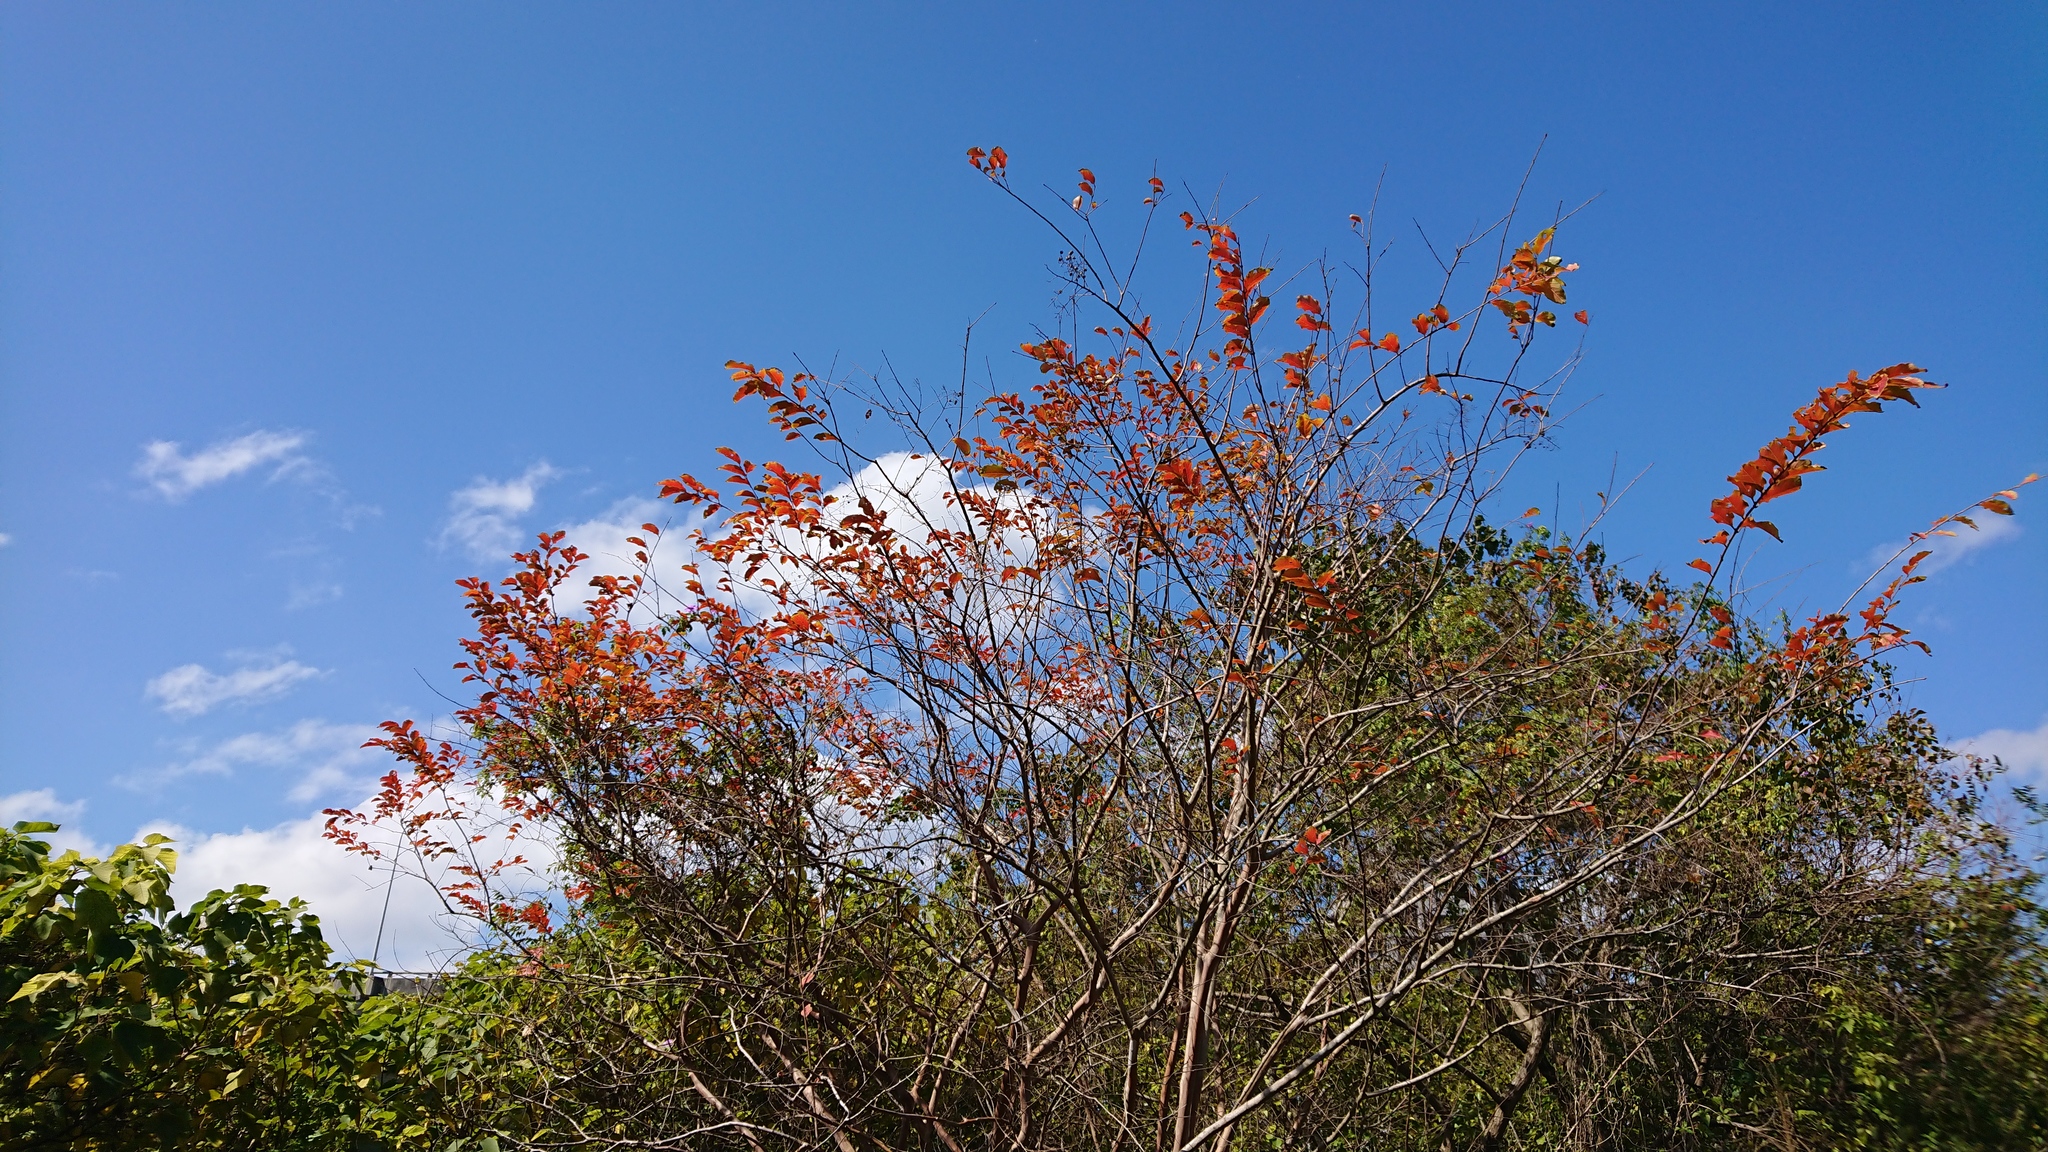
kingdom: Plantae
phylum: Tracheophyta
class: Magnoliopsida
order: Myrtales
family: Lythraceae
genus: Lagerstroemia
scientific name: Lagerstroemia subcostata
